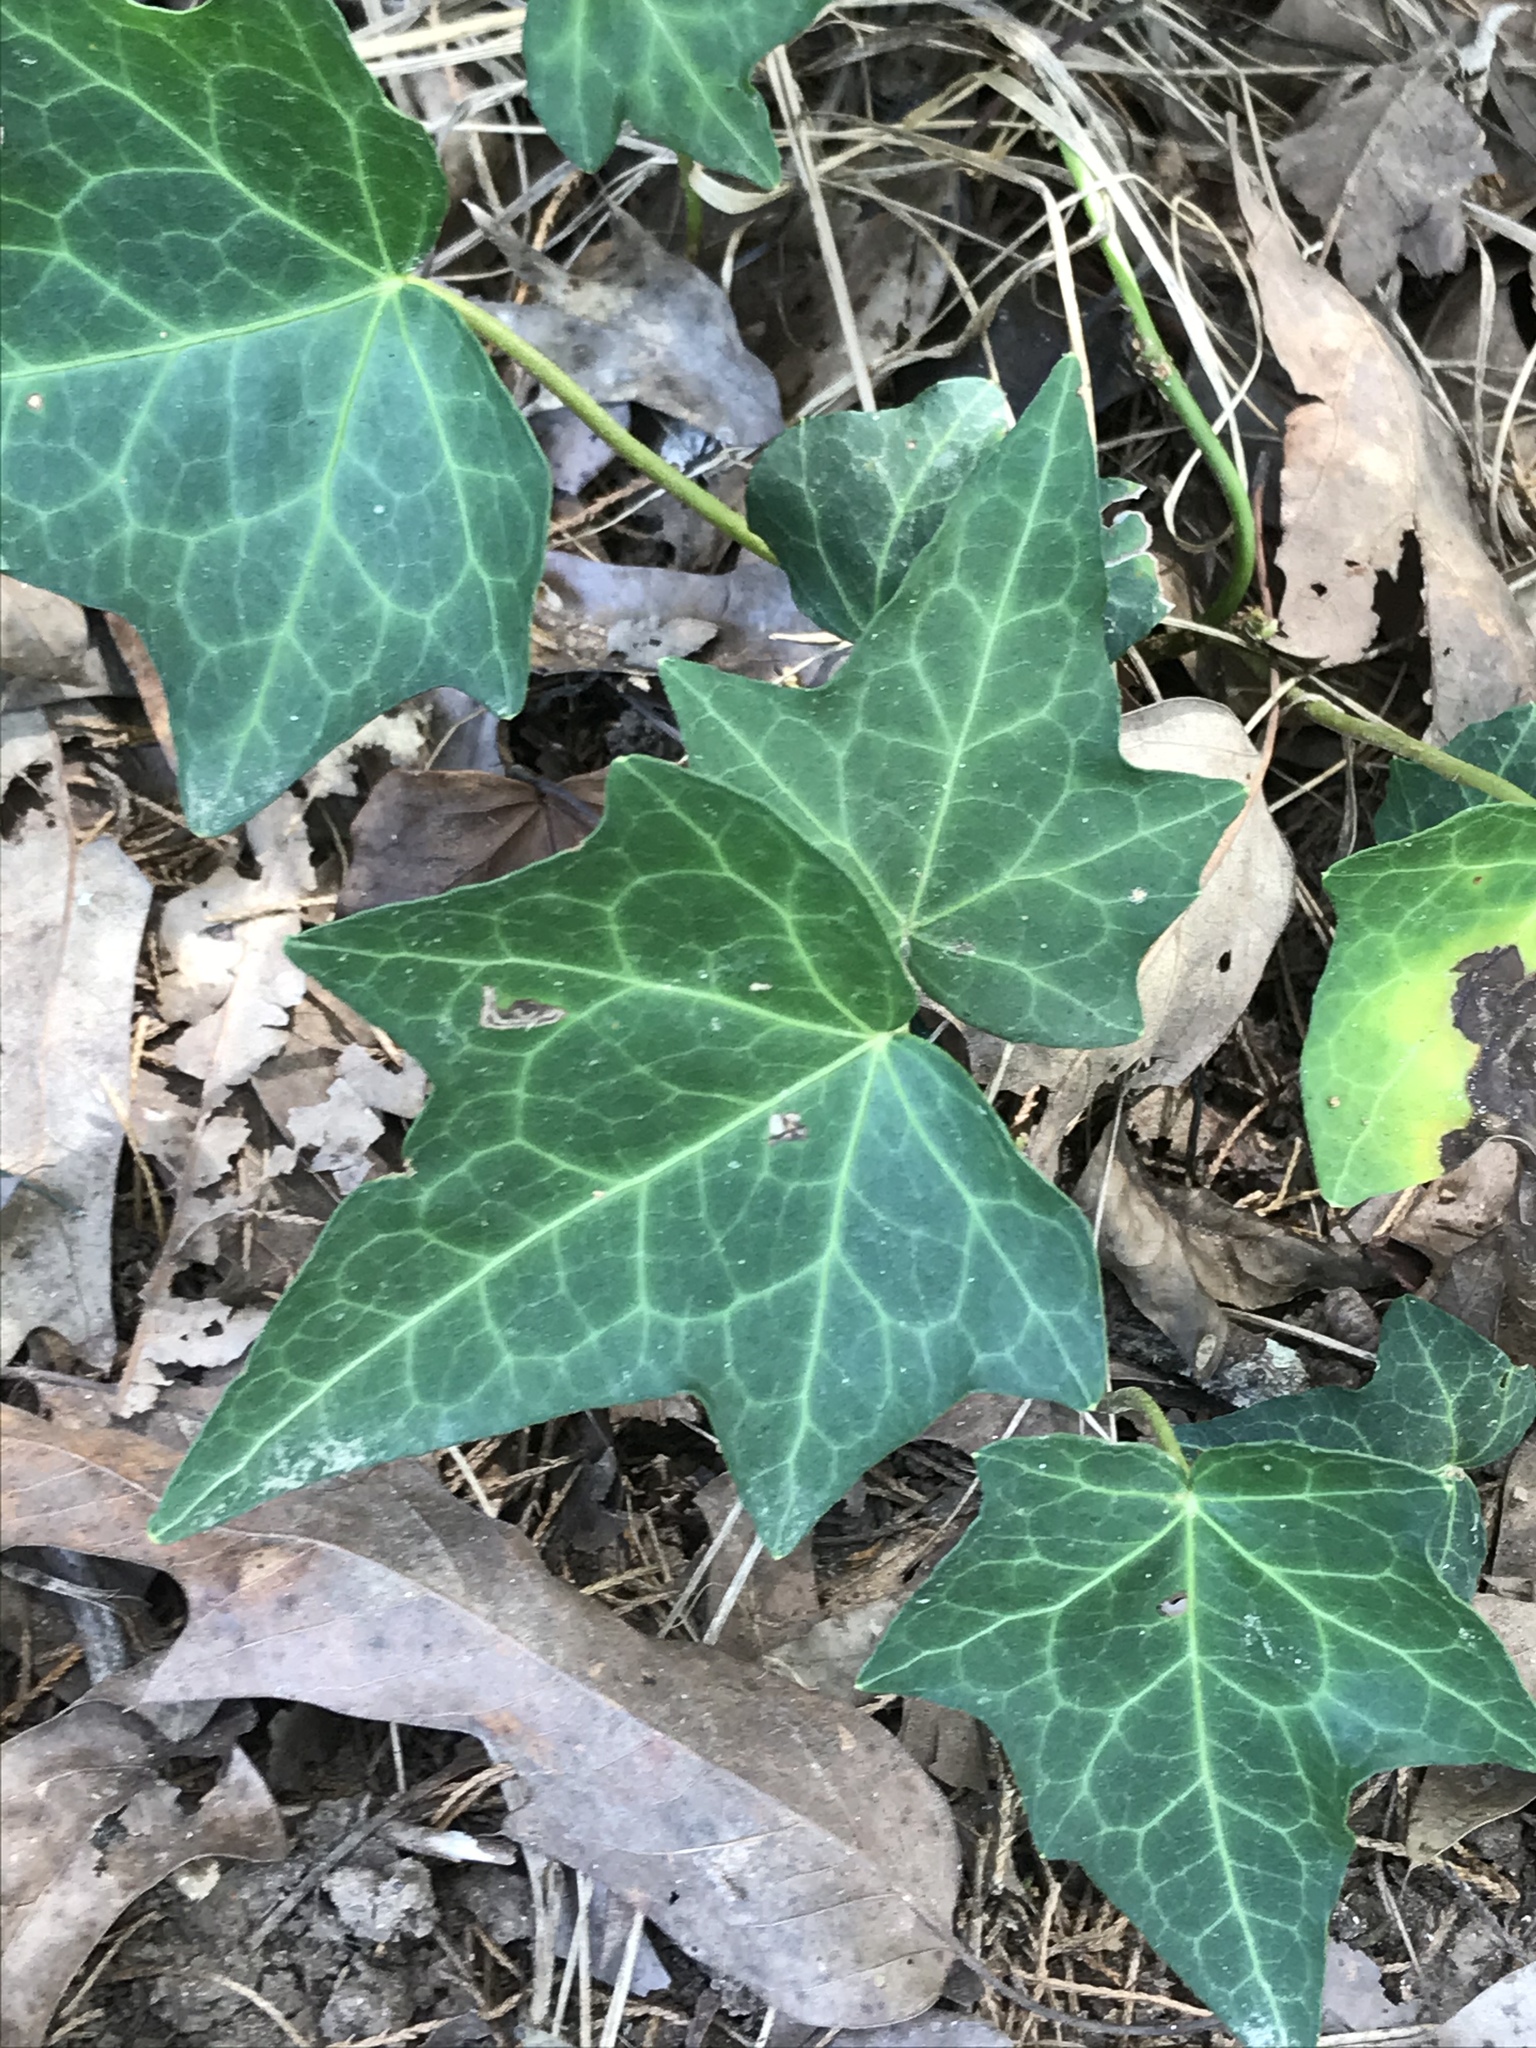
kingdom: Plantae
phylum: Tracheophyta
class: Magnoliopsida
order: Apiales
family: Araliaceae
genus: Hedera
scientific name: Hedera helix
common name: Ivy
